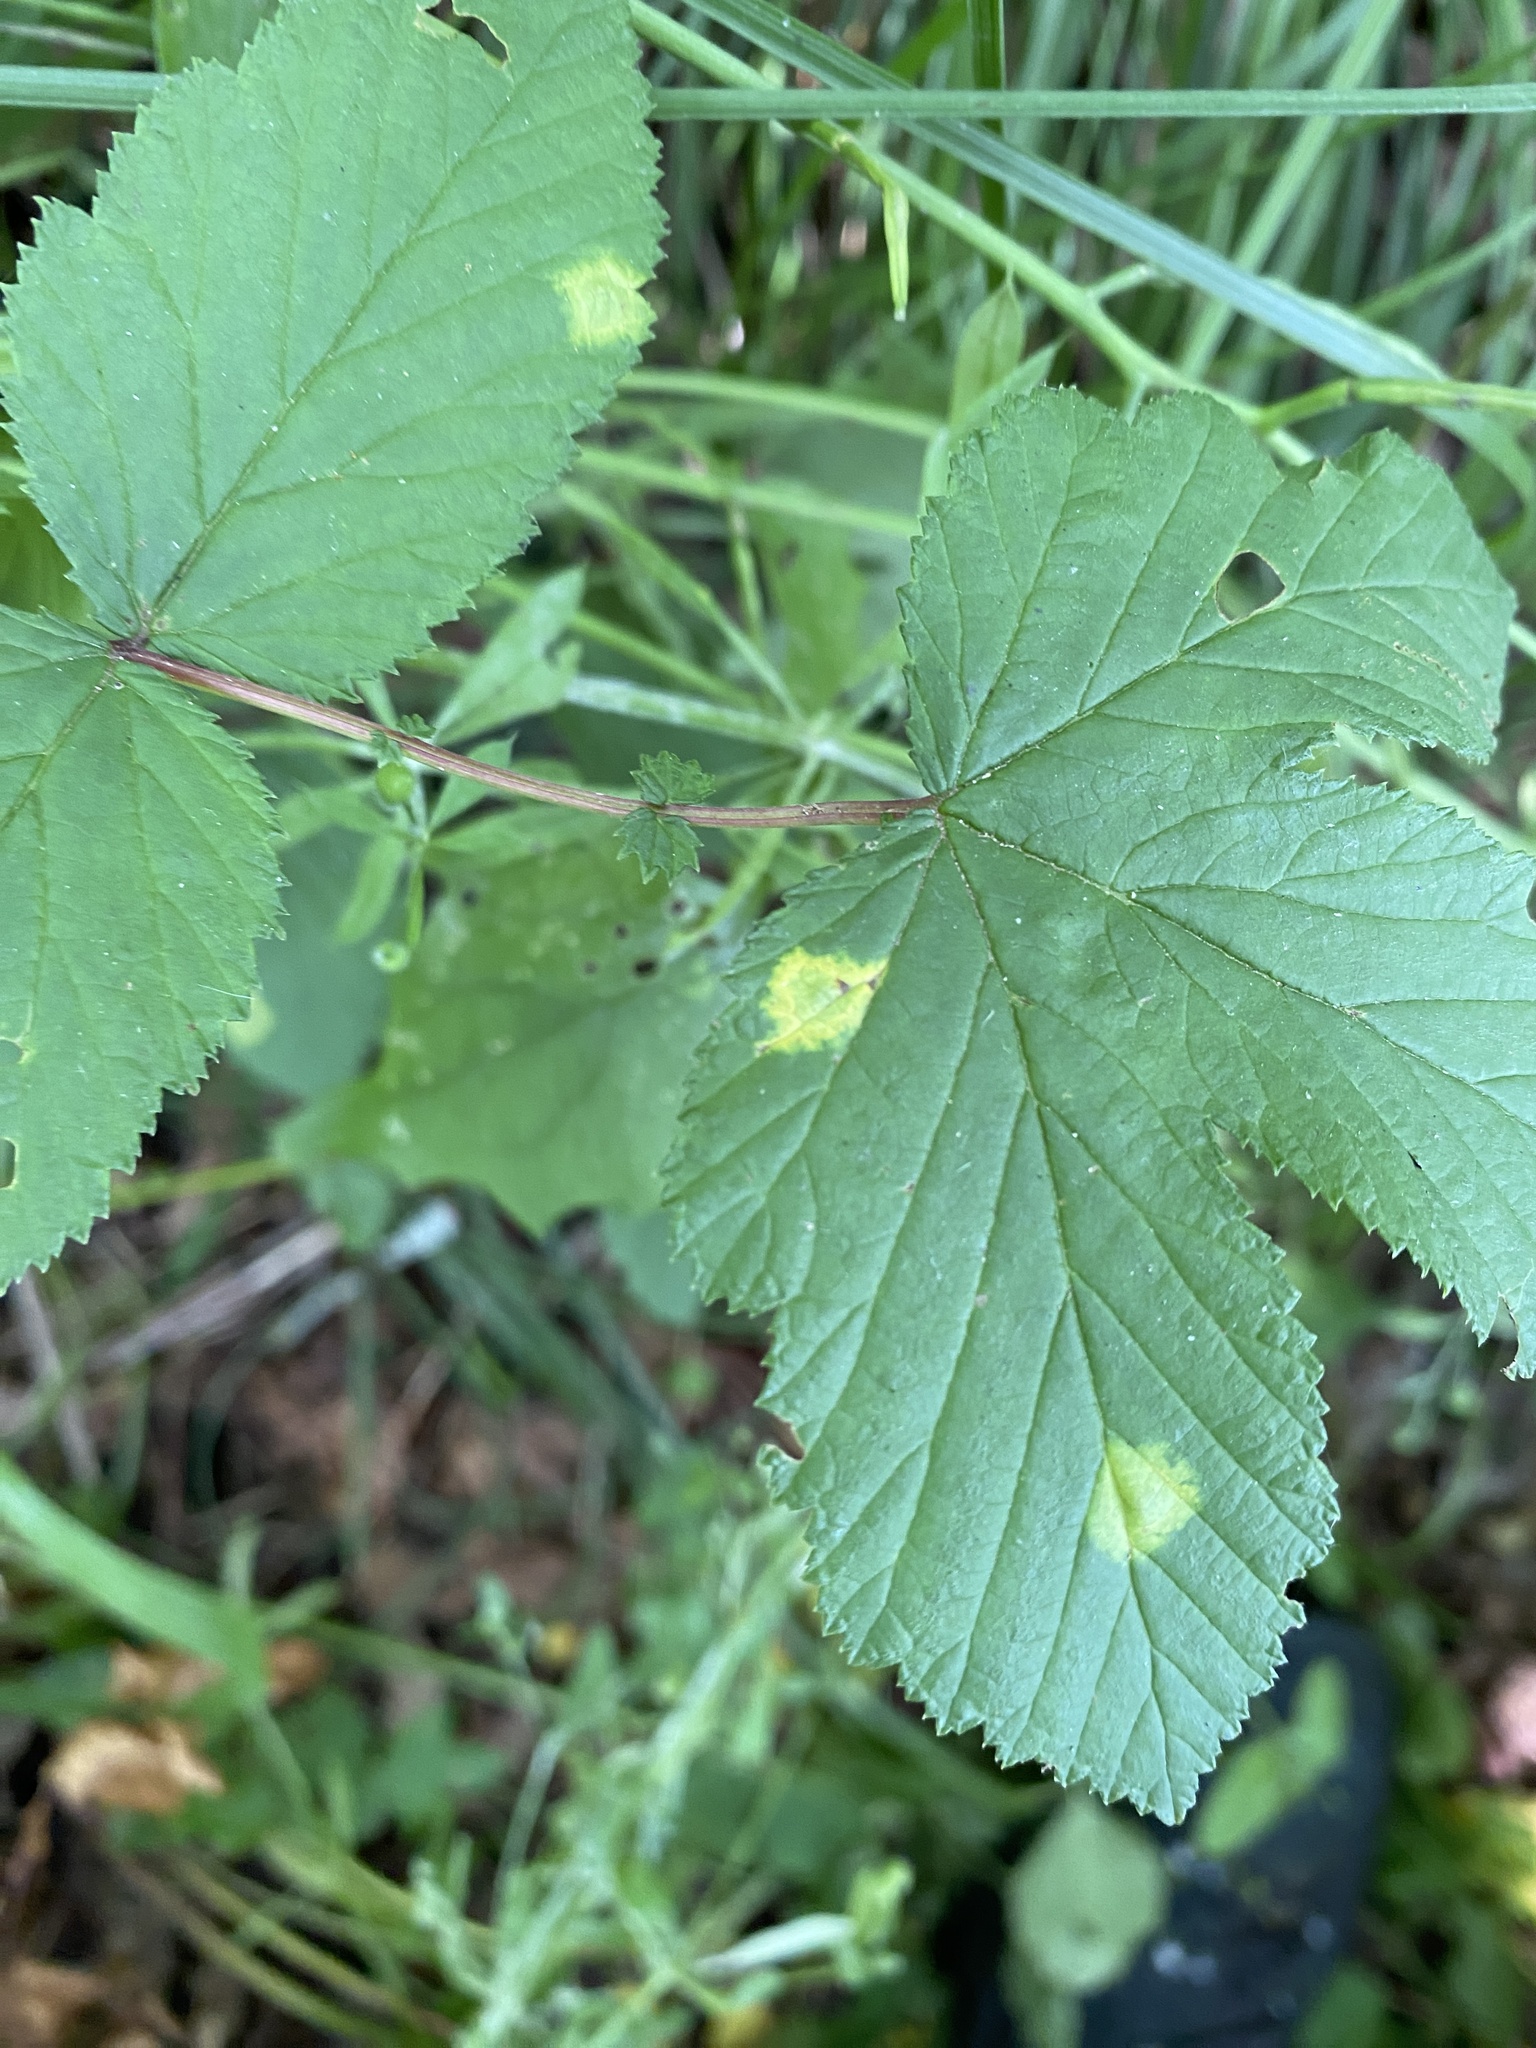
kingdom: Animalia
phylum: Arthropoda
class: Insecta
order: Diptera
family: Cecidomyiidae
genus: Dasineura
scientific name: Dasineura pustulans
